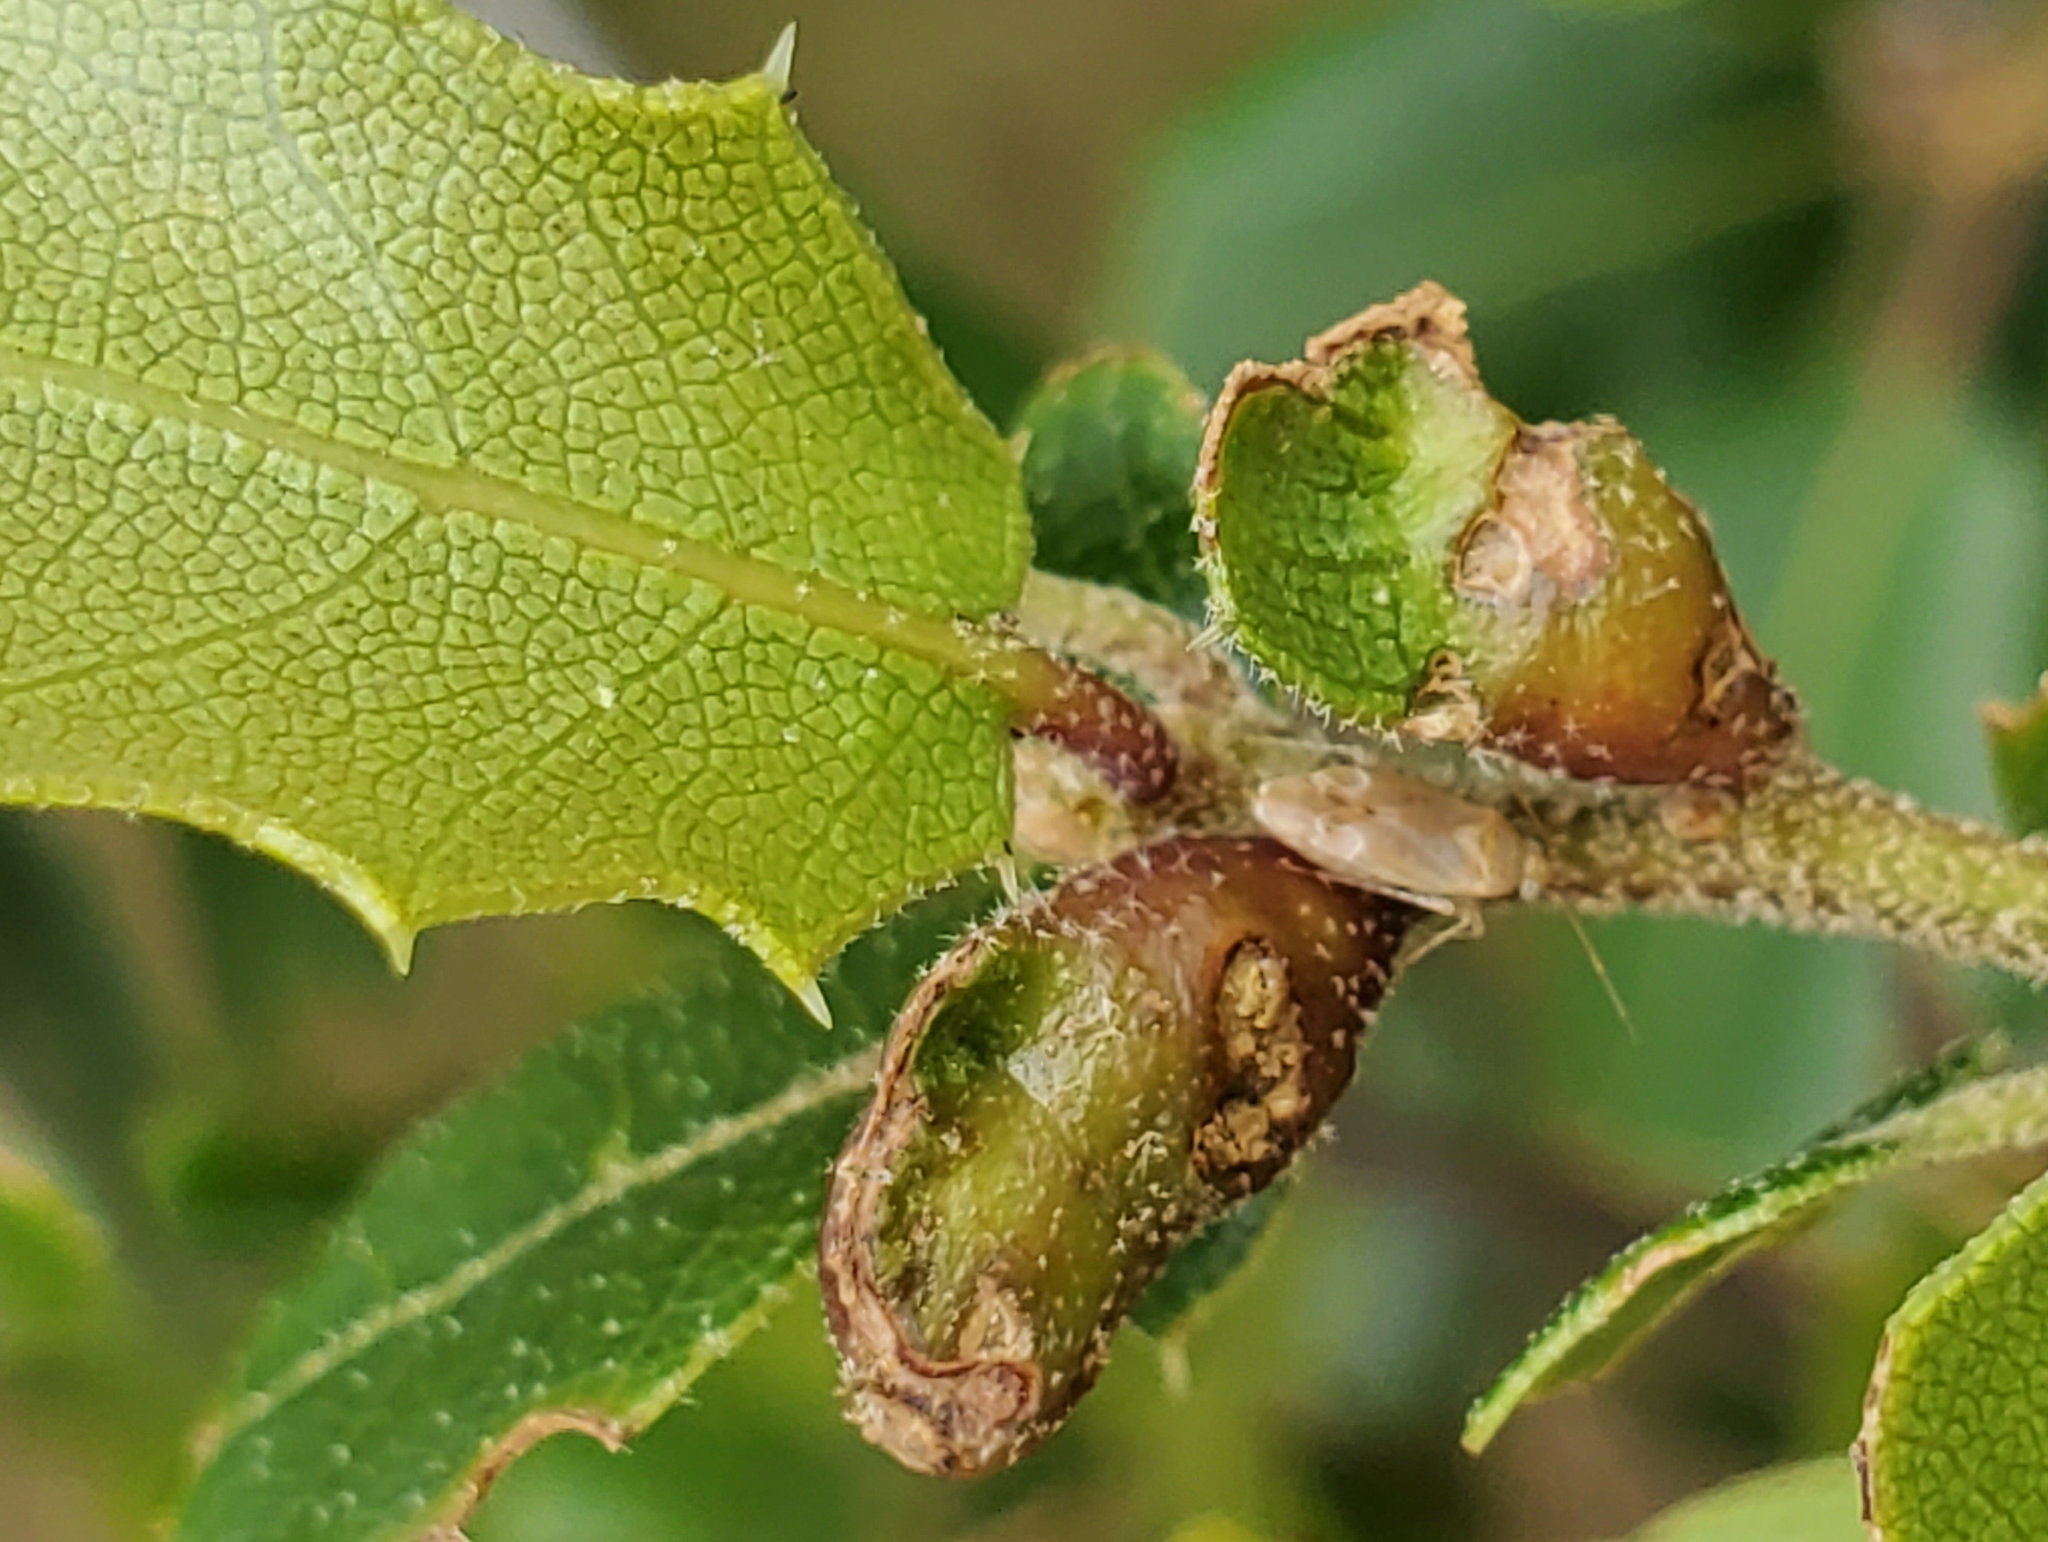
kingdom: Animalia
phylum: Arthropoda
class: Insecta
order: Hymenoptera
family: Cynipidae
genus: Melikaiella
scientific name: Melikaiella
